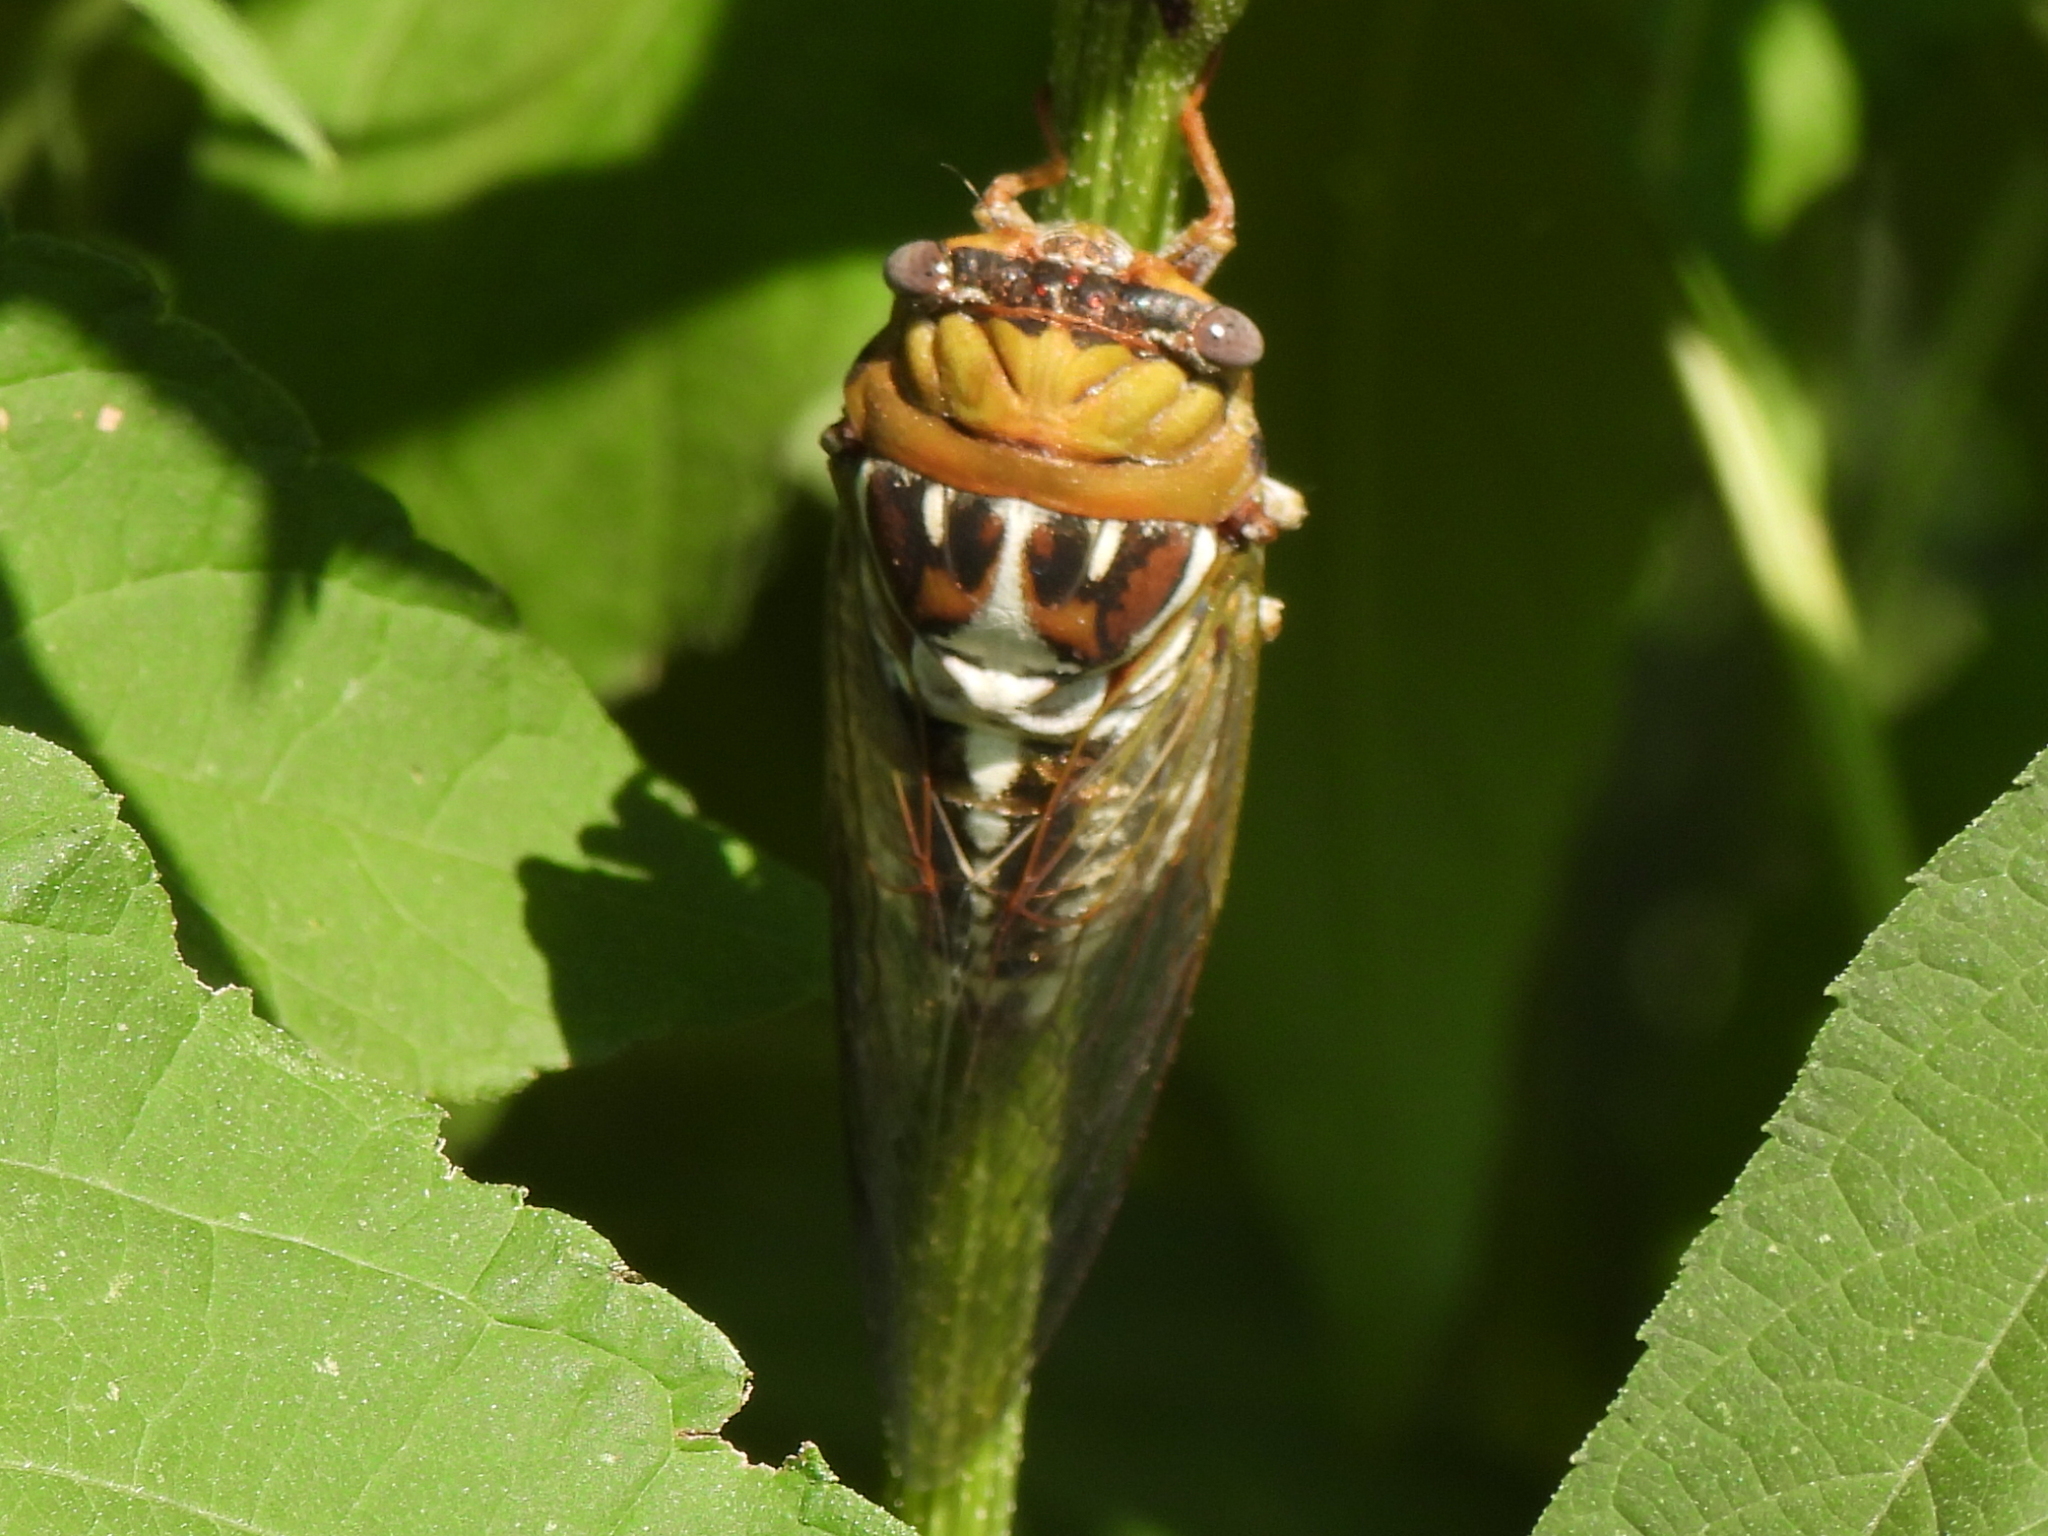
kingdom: Animalia
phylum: Arthropoda
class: Insecta
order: Hemiptera
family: Cicadidae
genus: Megatibicen
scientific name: Megatibicen dealbatus
